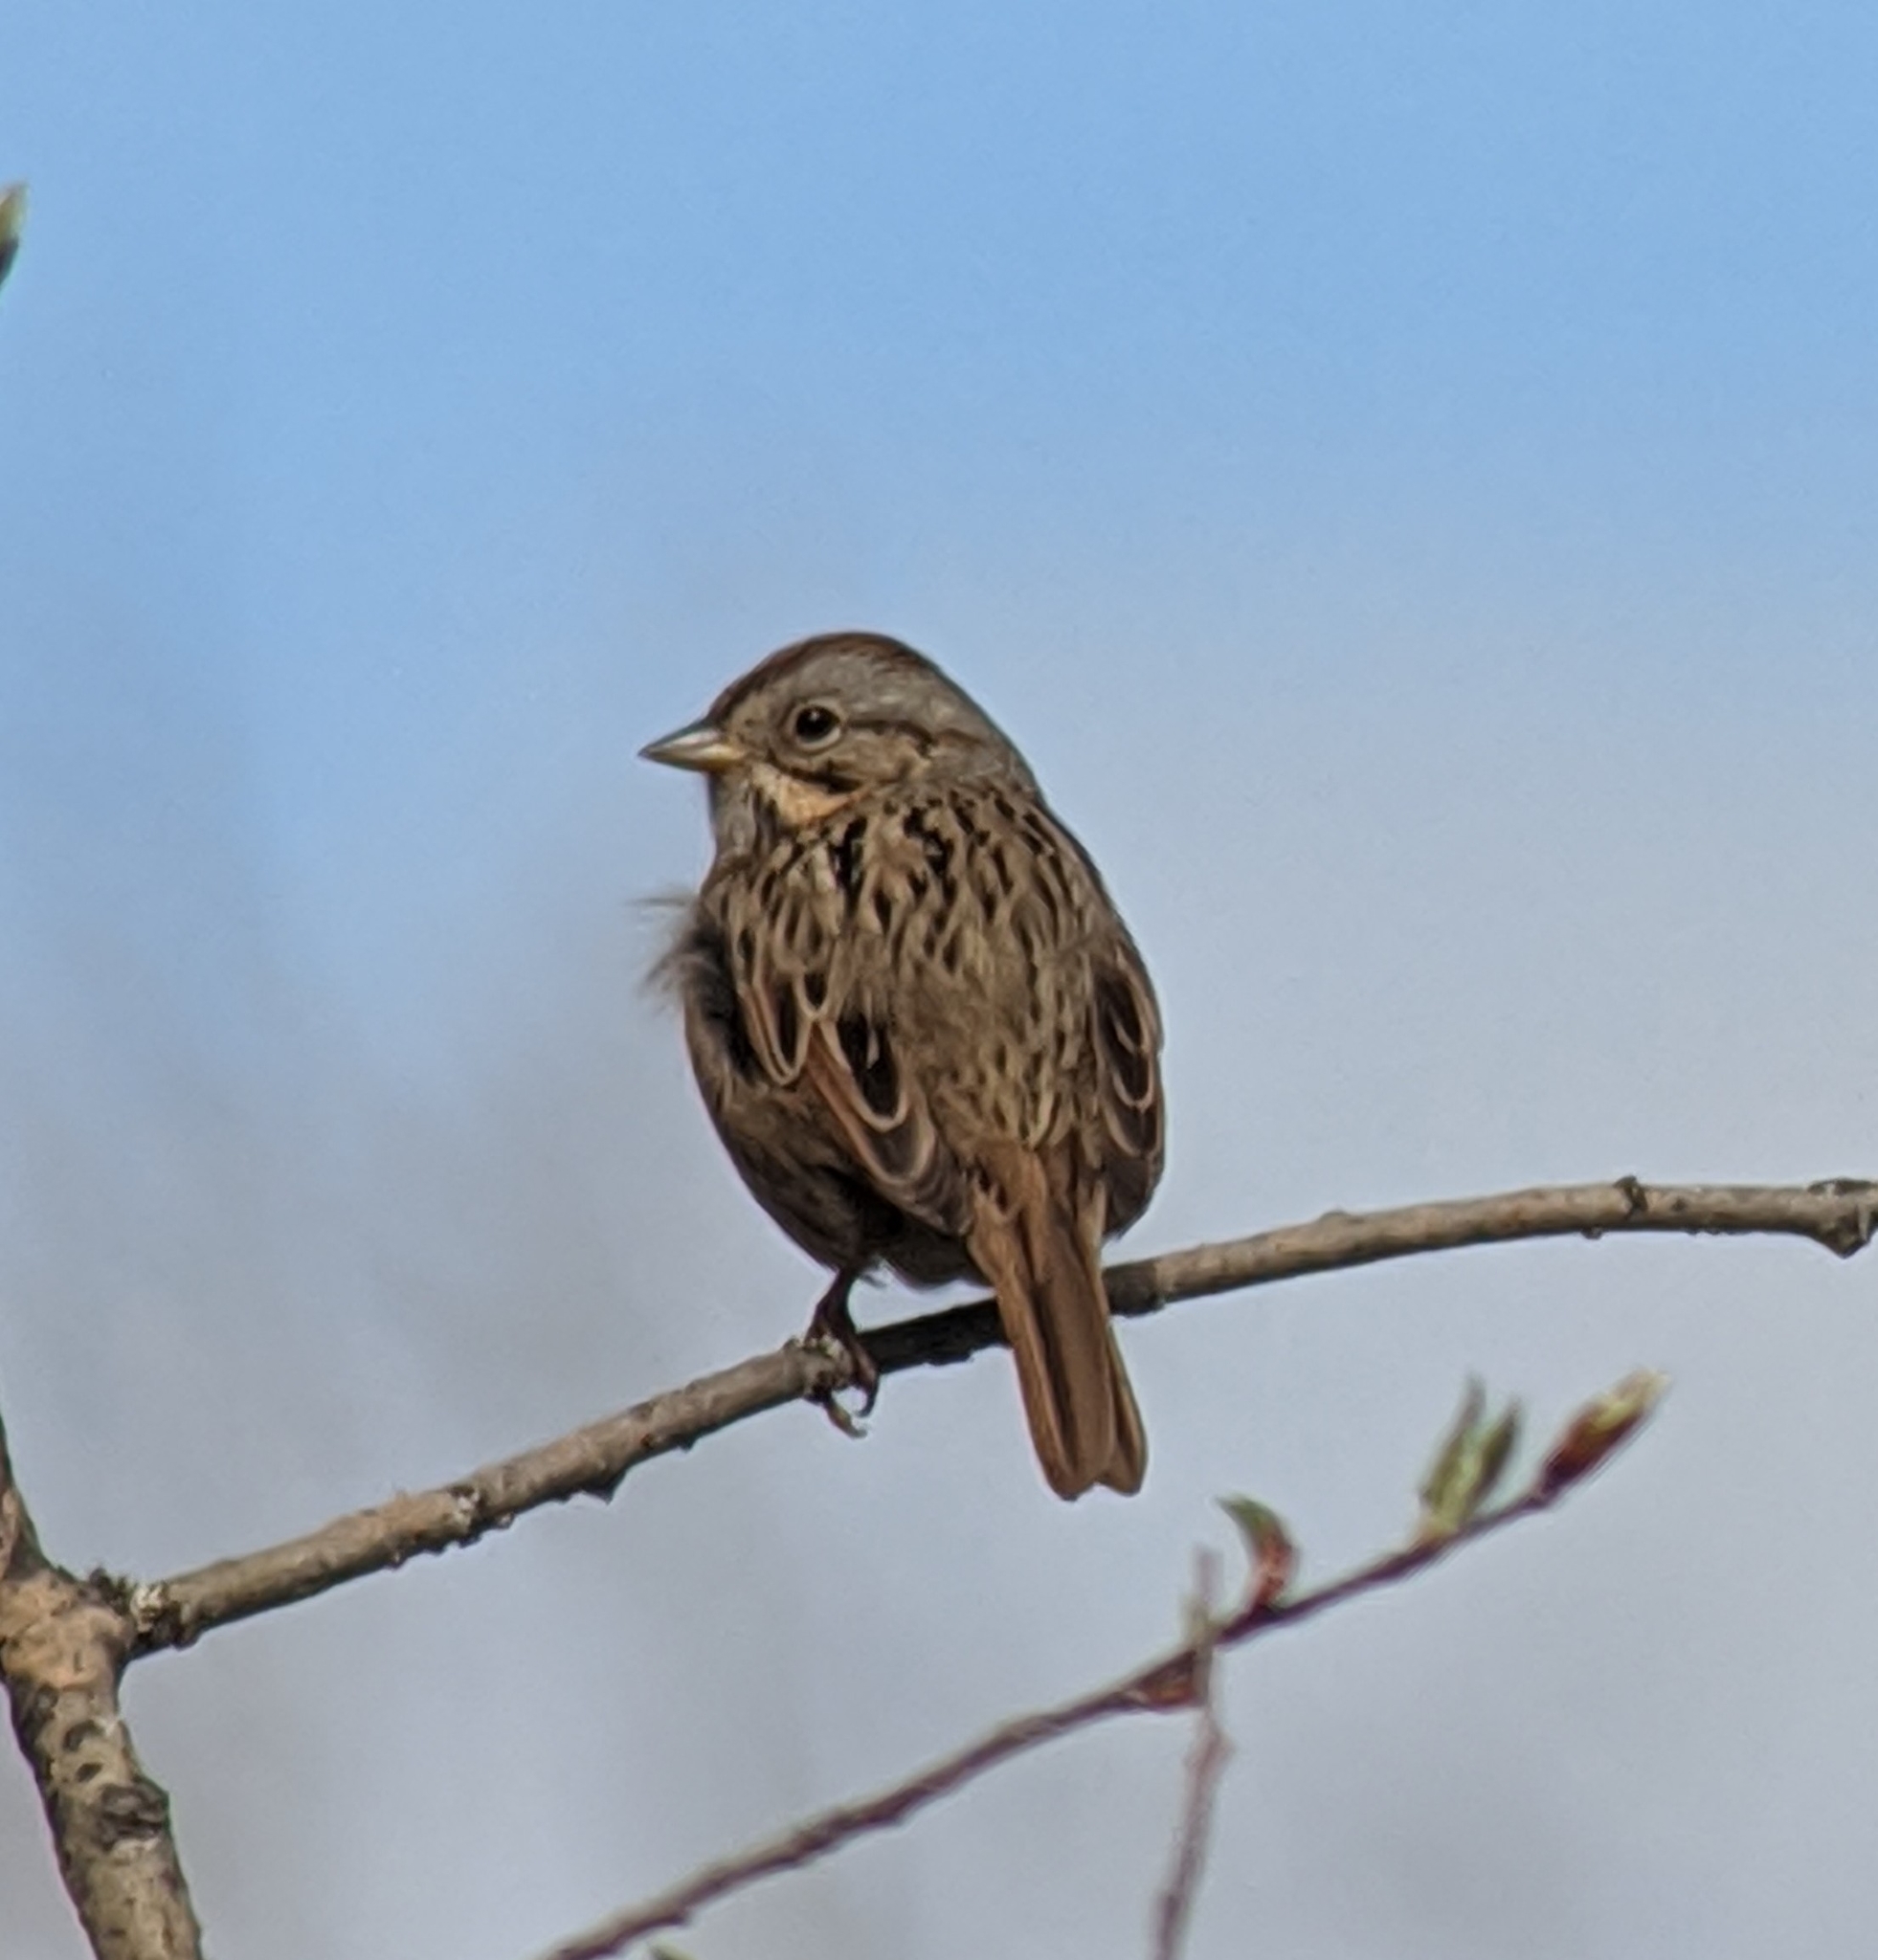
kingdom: Animalia
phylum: Chordata
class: Aves
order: Passeriformes
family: Passerellidae
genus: Melospiza
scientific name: Melospiza lincolnii
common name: Lincoln's sparrow
